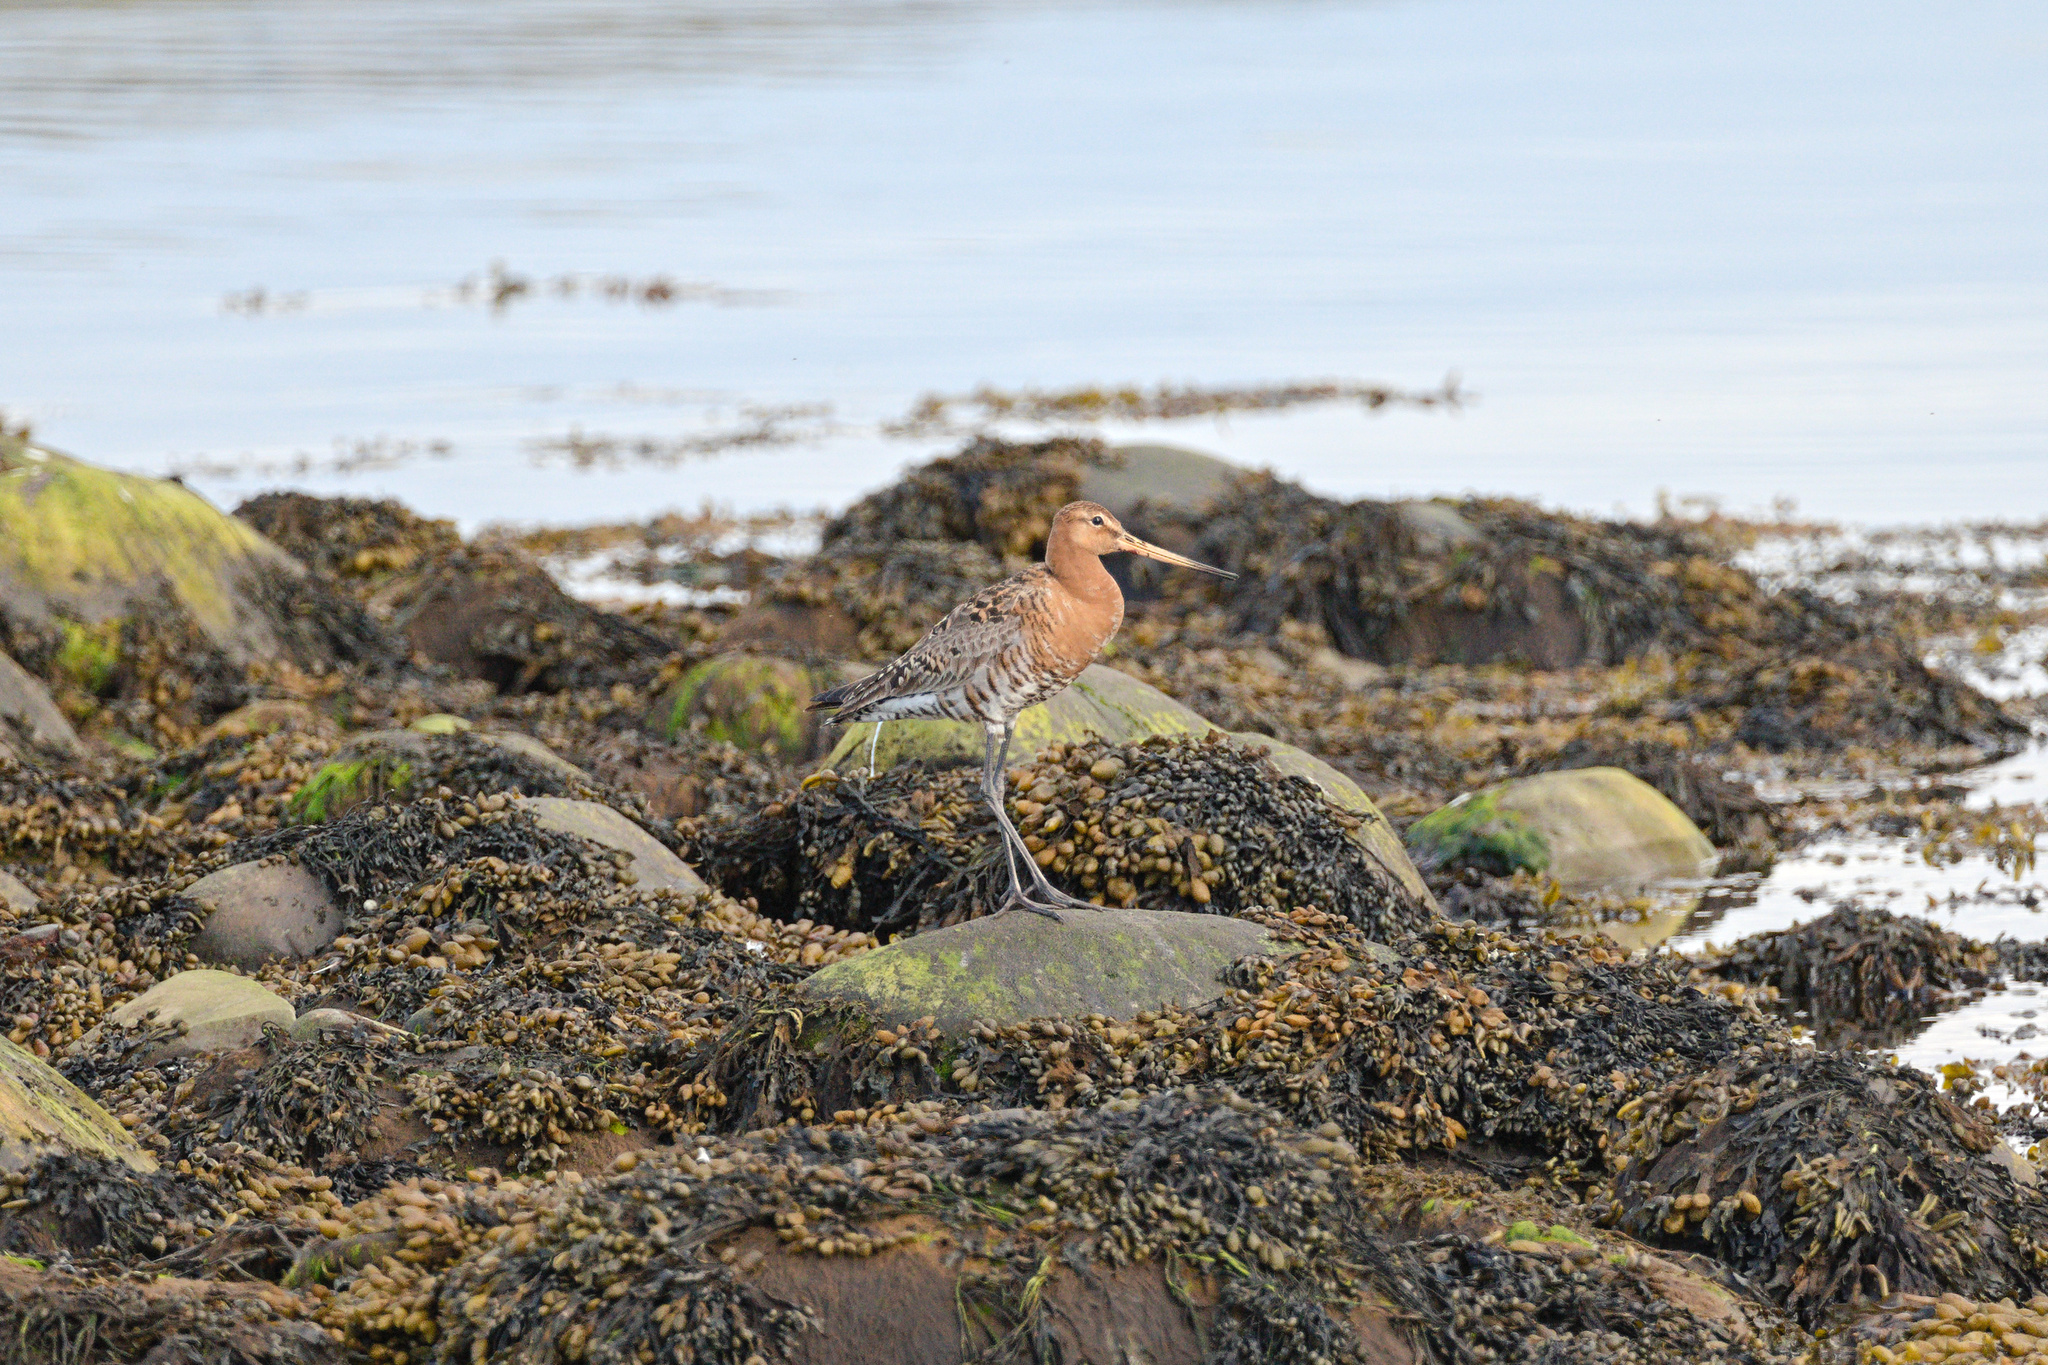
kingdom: Animalia
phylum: Chordata
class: Aves
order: Charadriiformes
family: Scolopacidae
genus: Limosa
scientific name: Limosa limosa
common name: Black-tailed godwit
